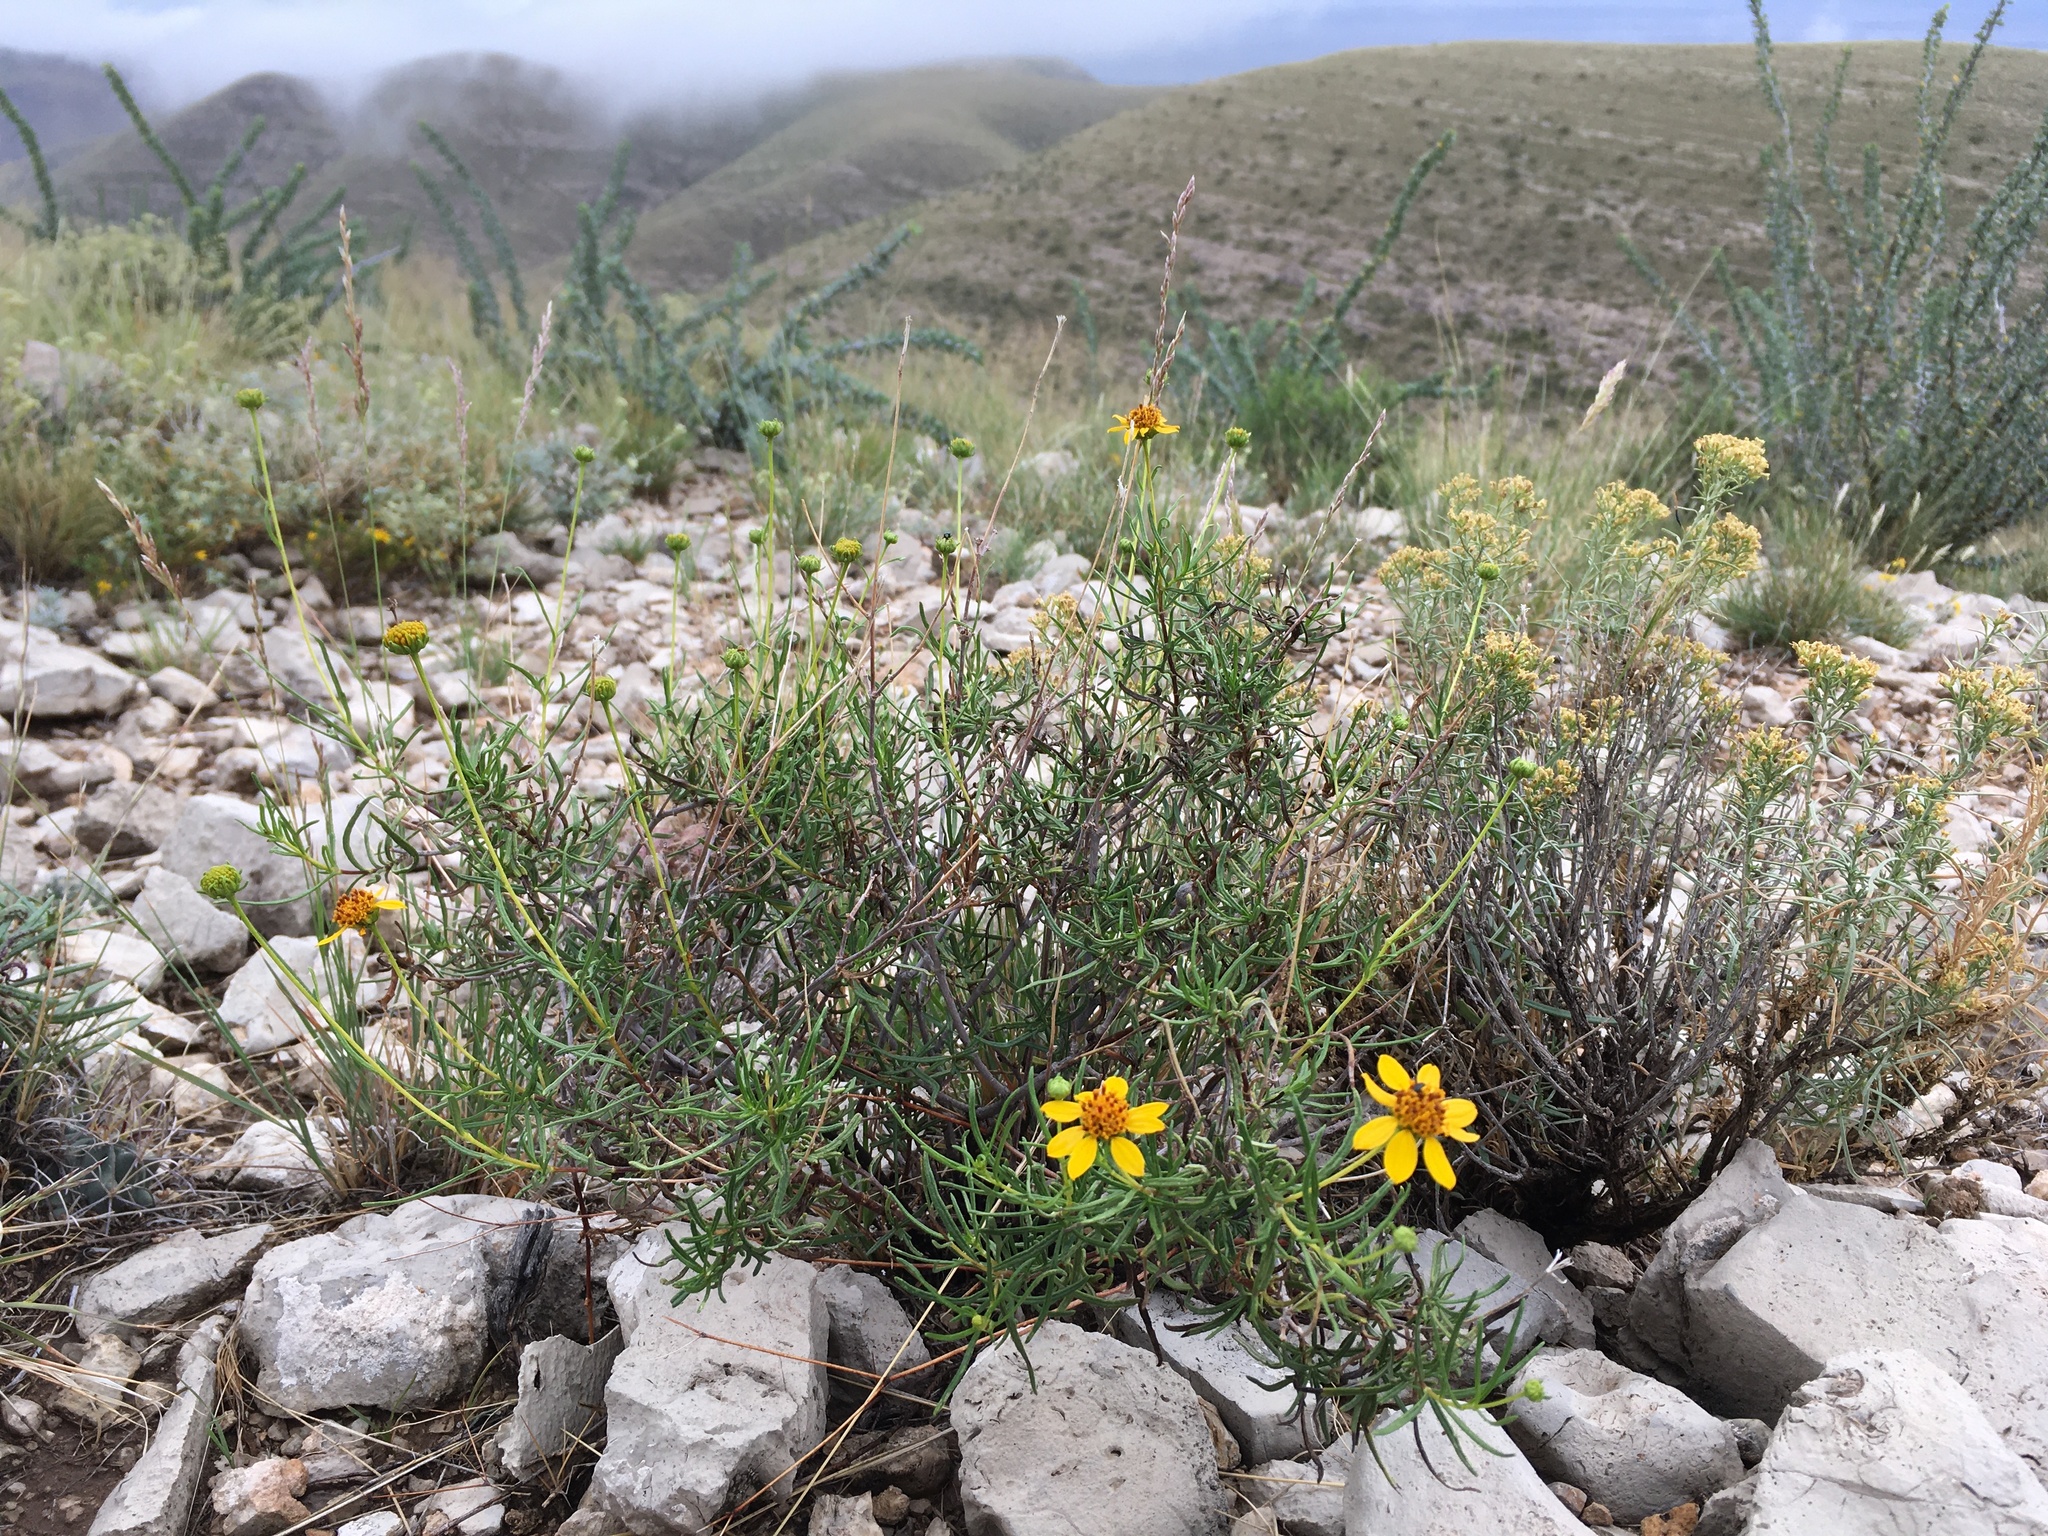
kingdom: Plantae
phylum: Tracheophyta
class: Magnoliopsida
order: Asterales
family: Asteraceae
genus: Sidneya
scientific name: Sidneya tenuifolia
